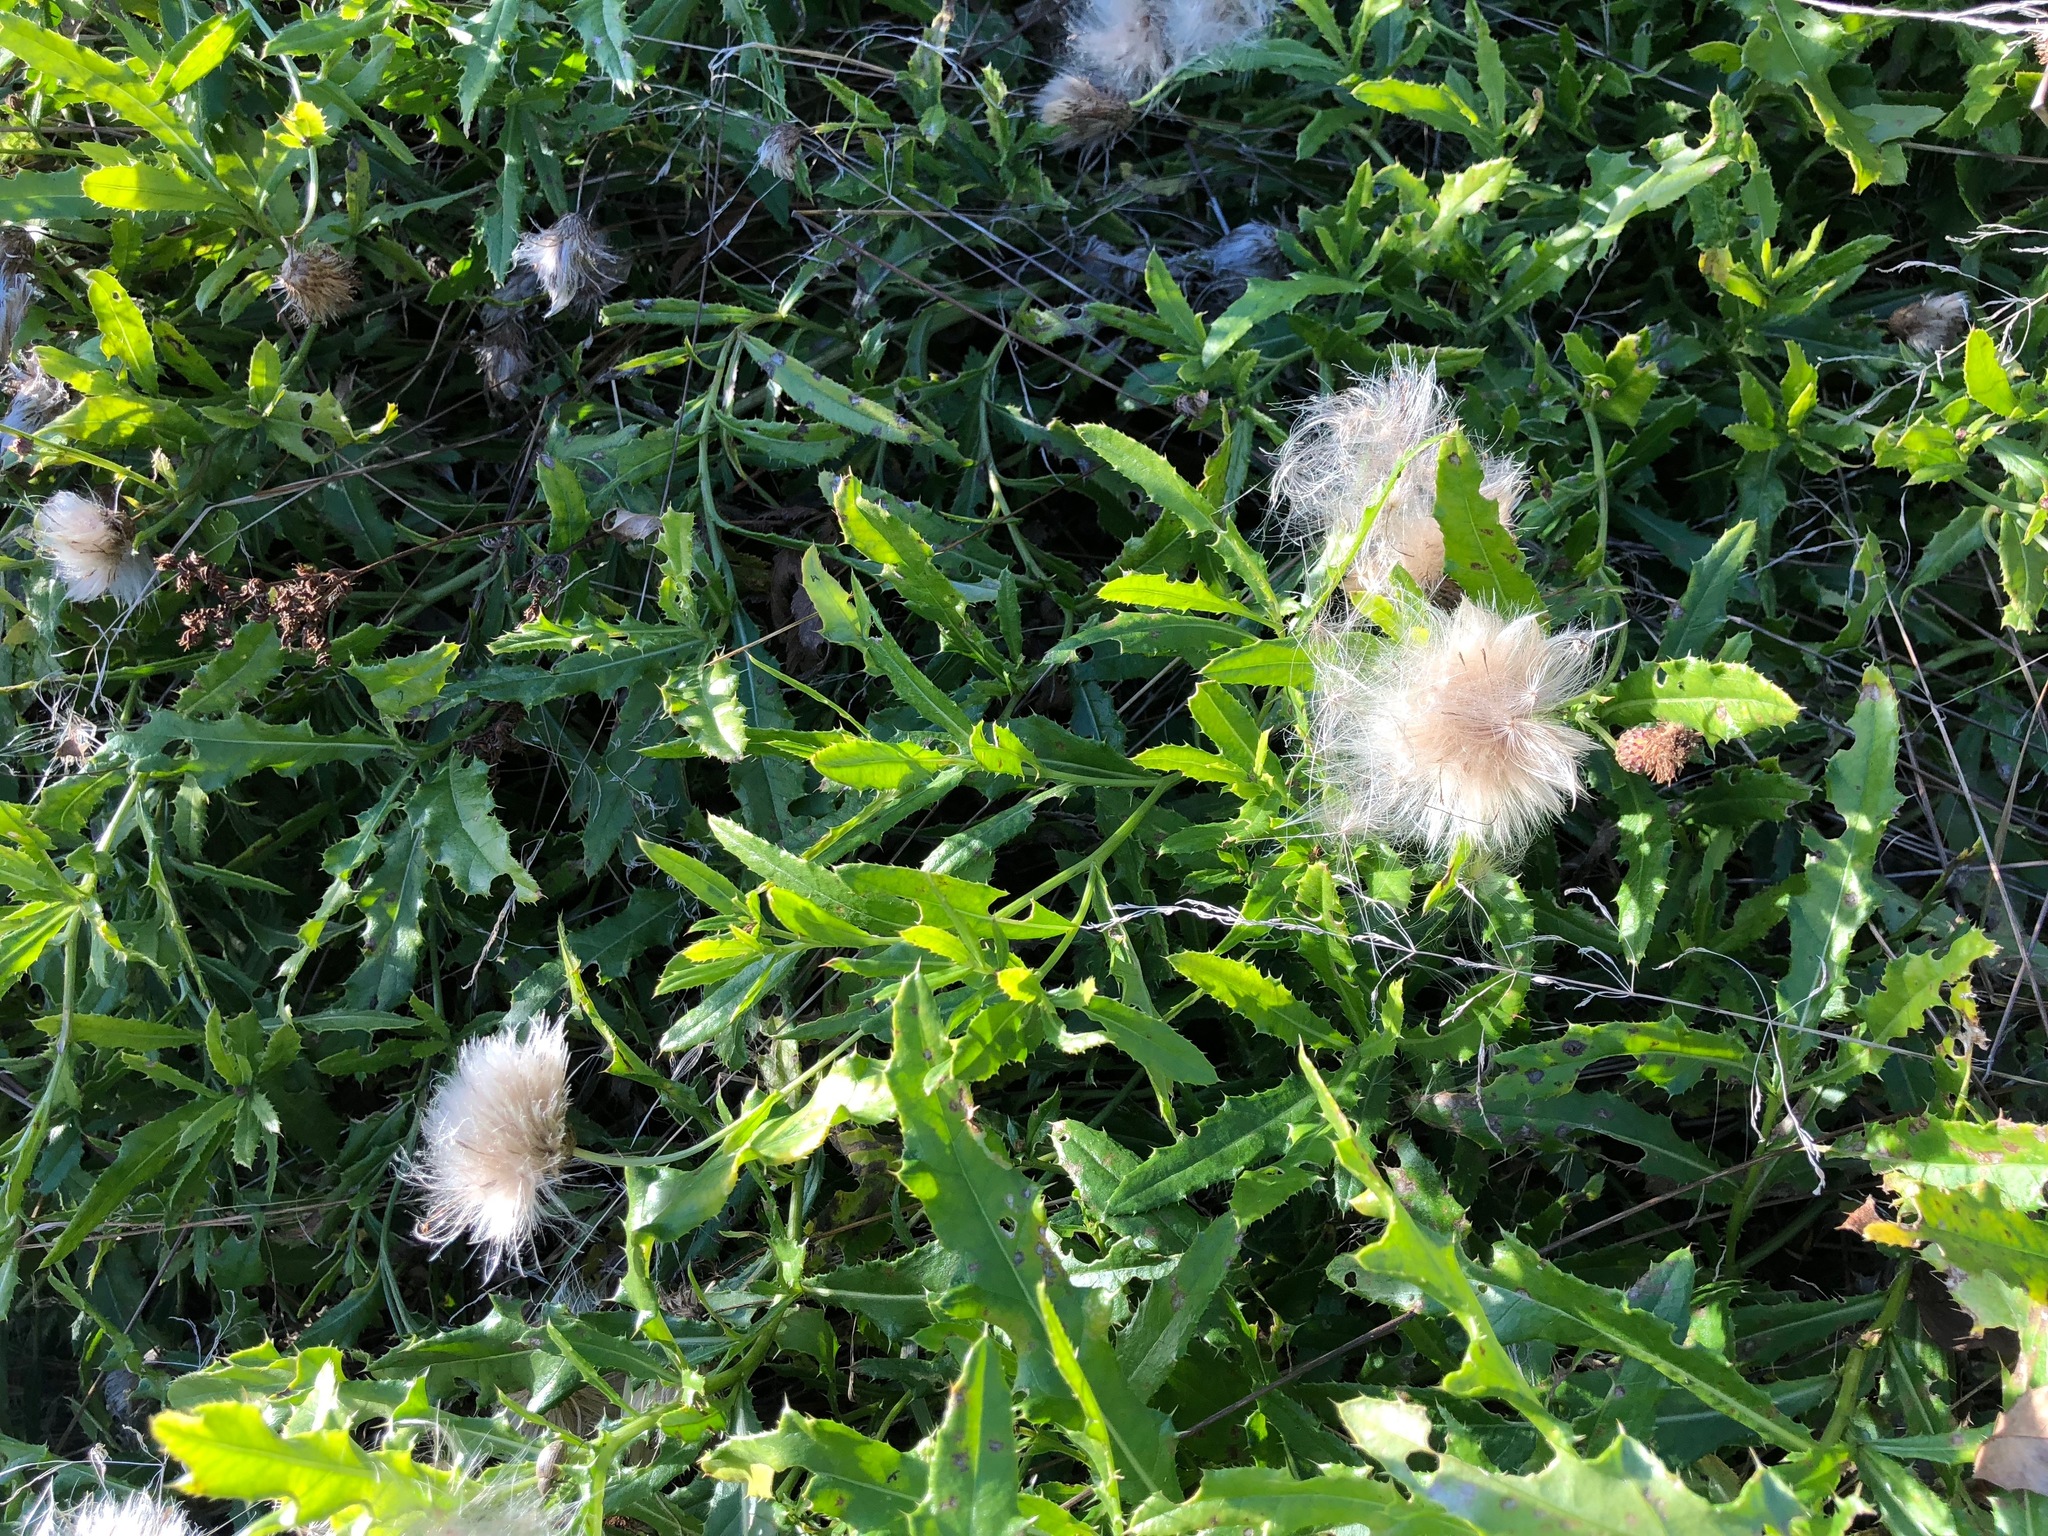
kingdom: Plantae
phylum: Tracheophyta
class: Magnoliopsida
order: Asterales
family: Asteraceae
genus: Cirsium
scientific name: Cirsium arvense
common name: Creeping thistle
